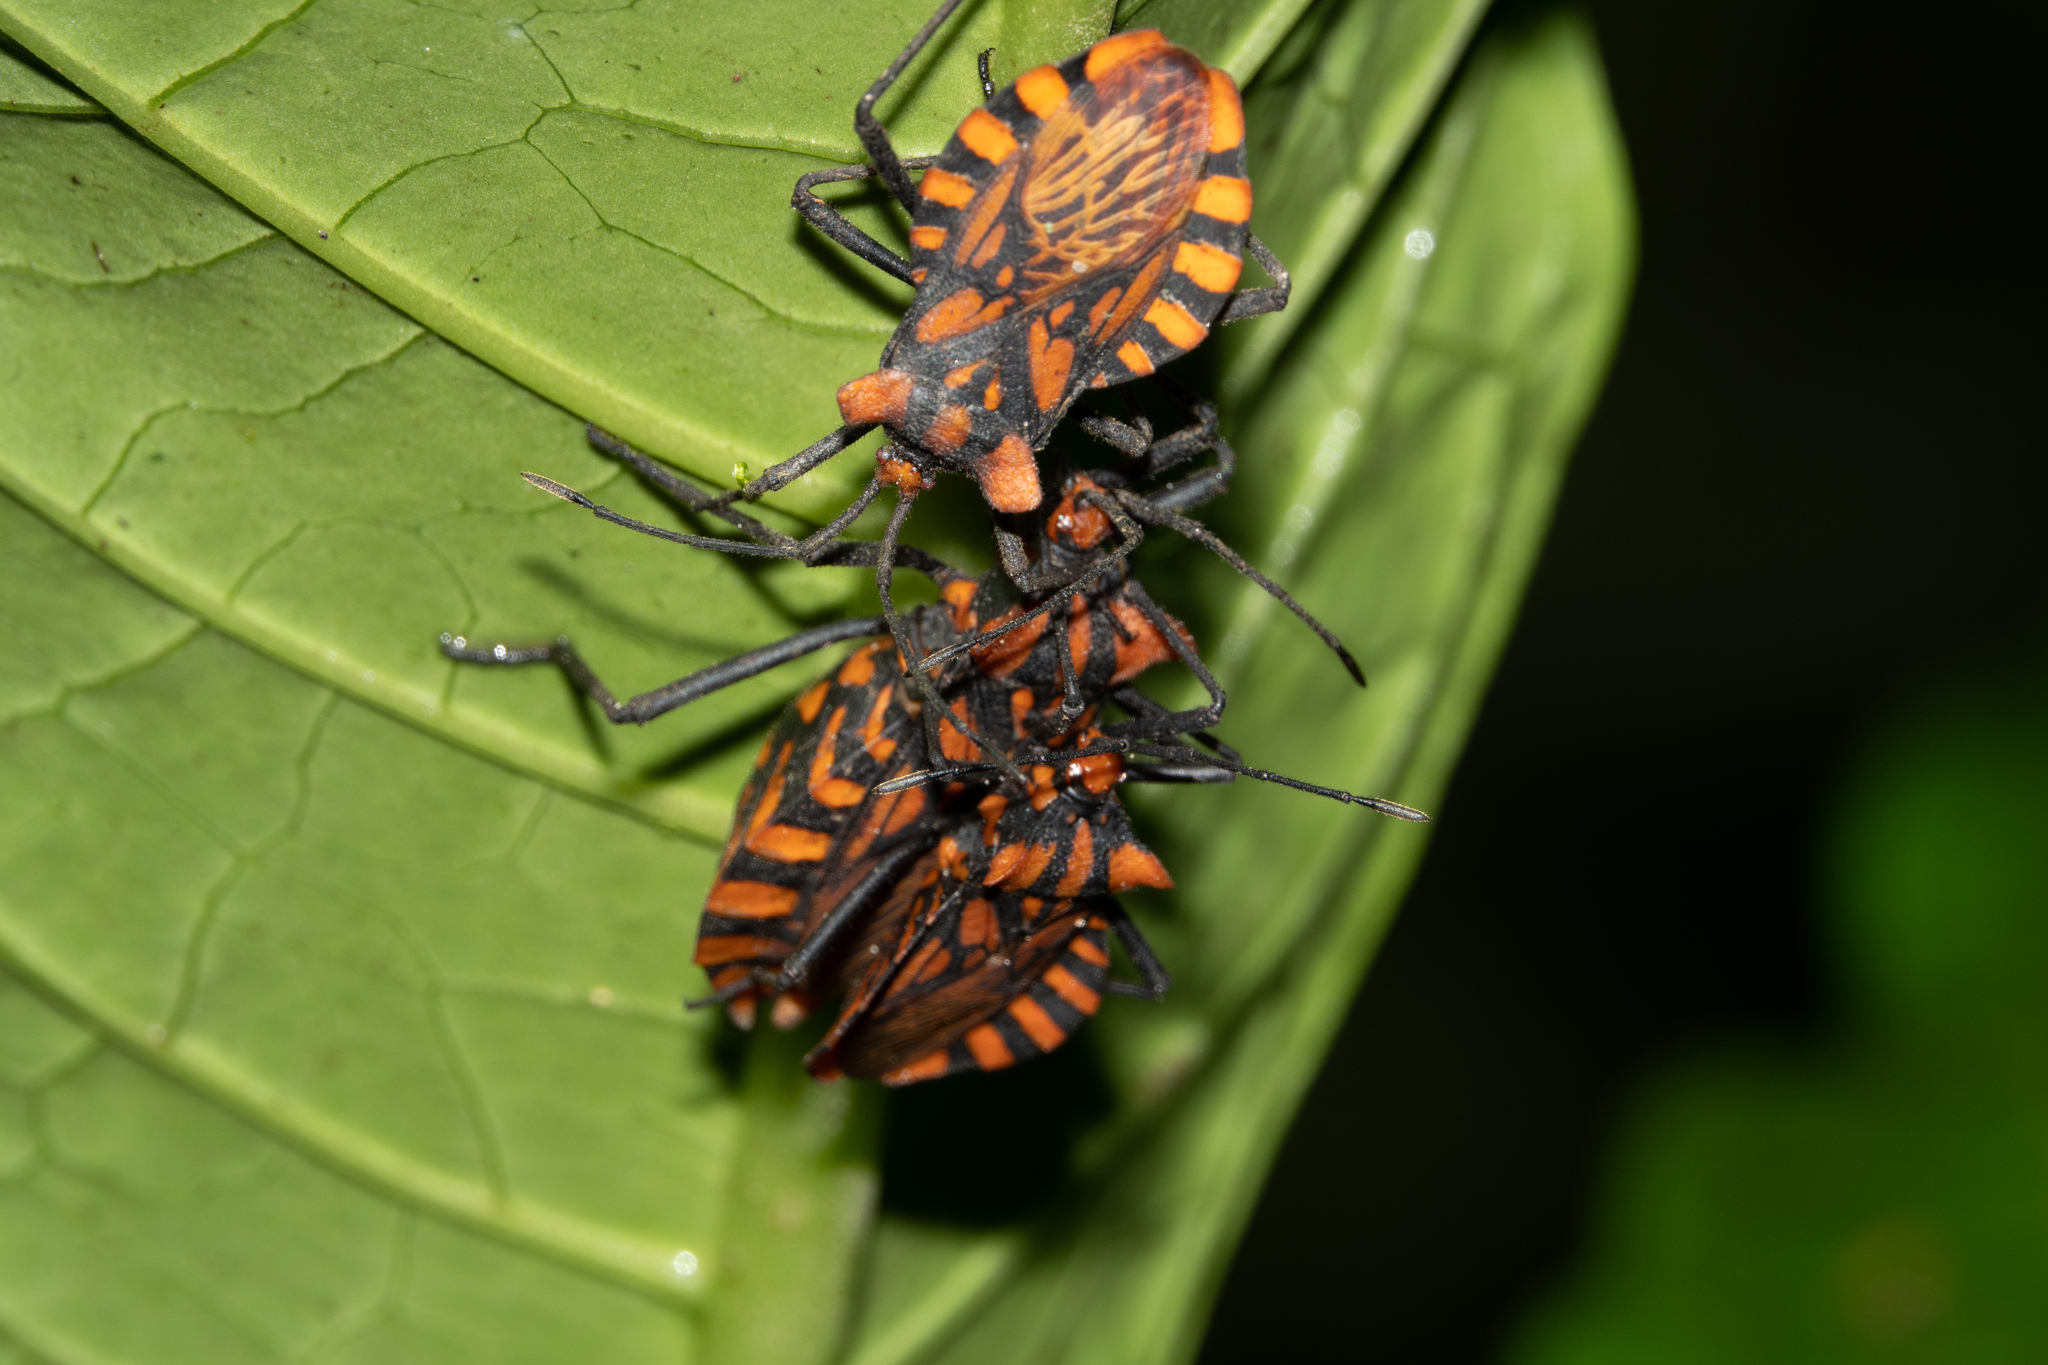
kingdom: Animalia
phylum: Arthropoda
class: Insecta
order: Hemiptera
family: Coreidae
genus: Spartocera
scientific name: Spartocera pantomima
